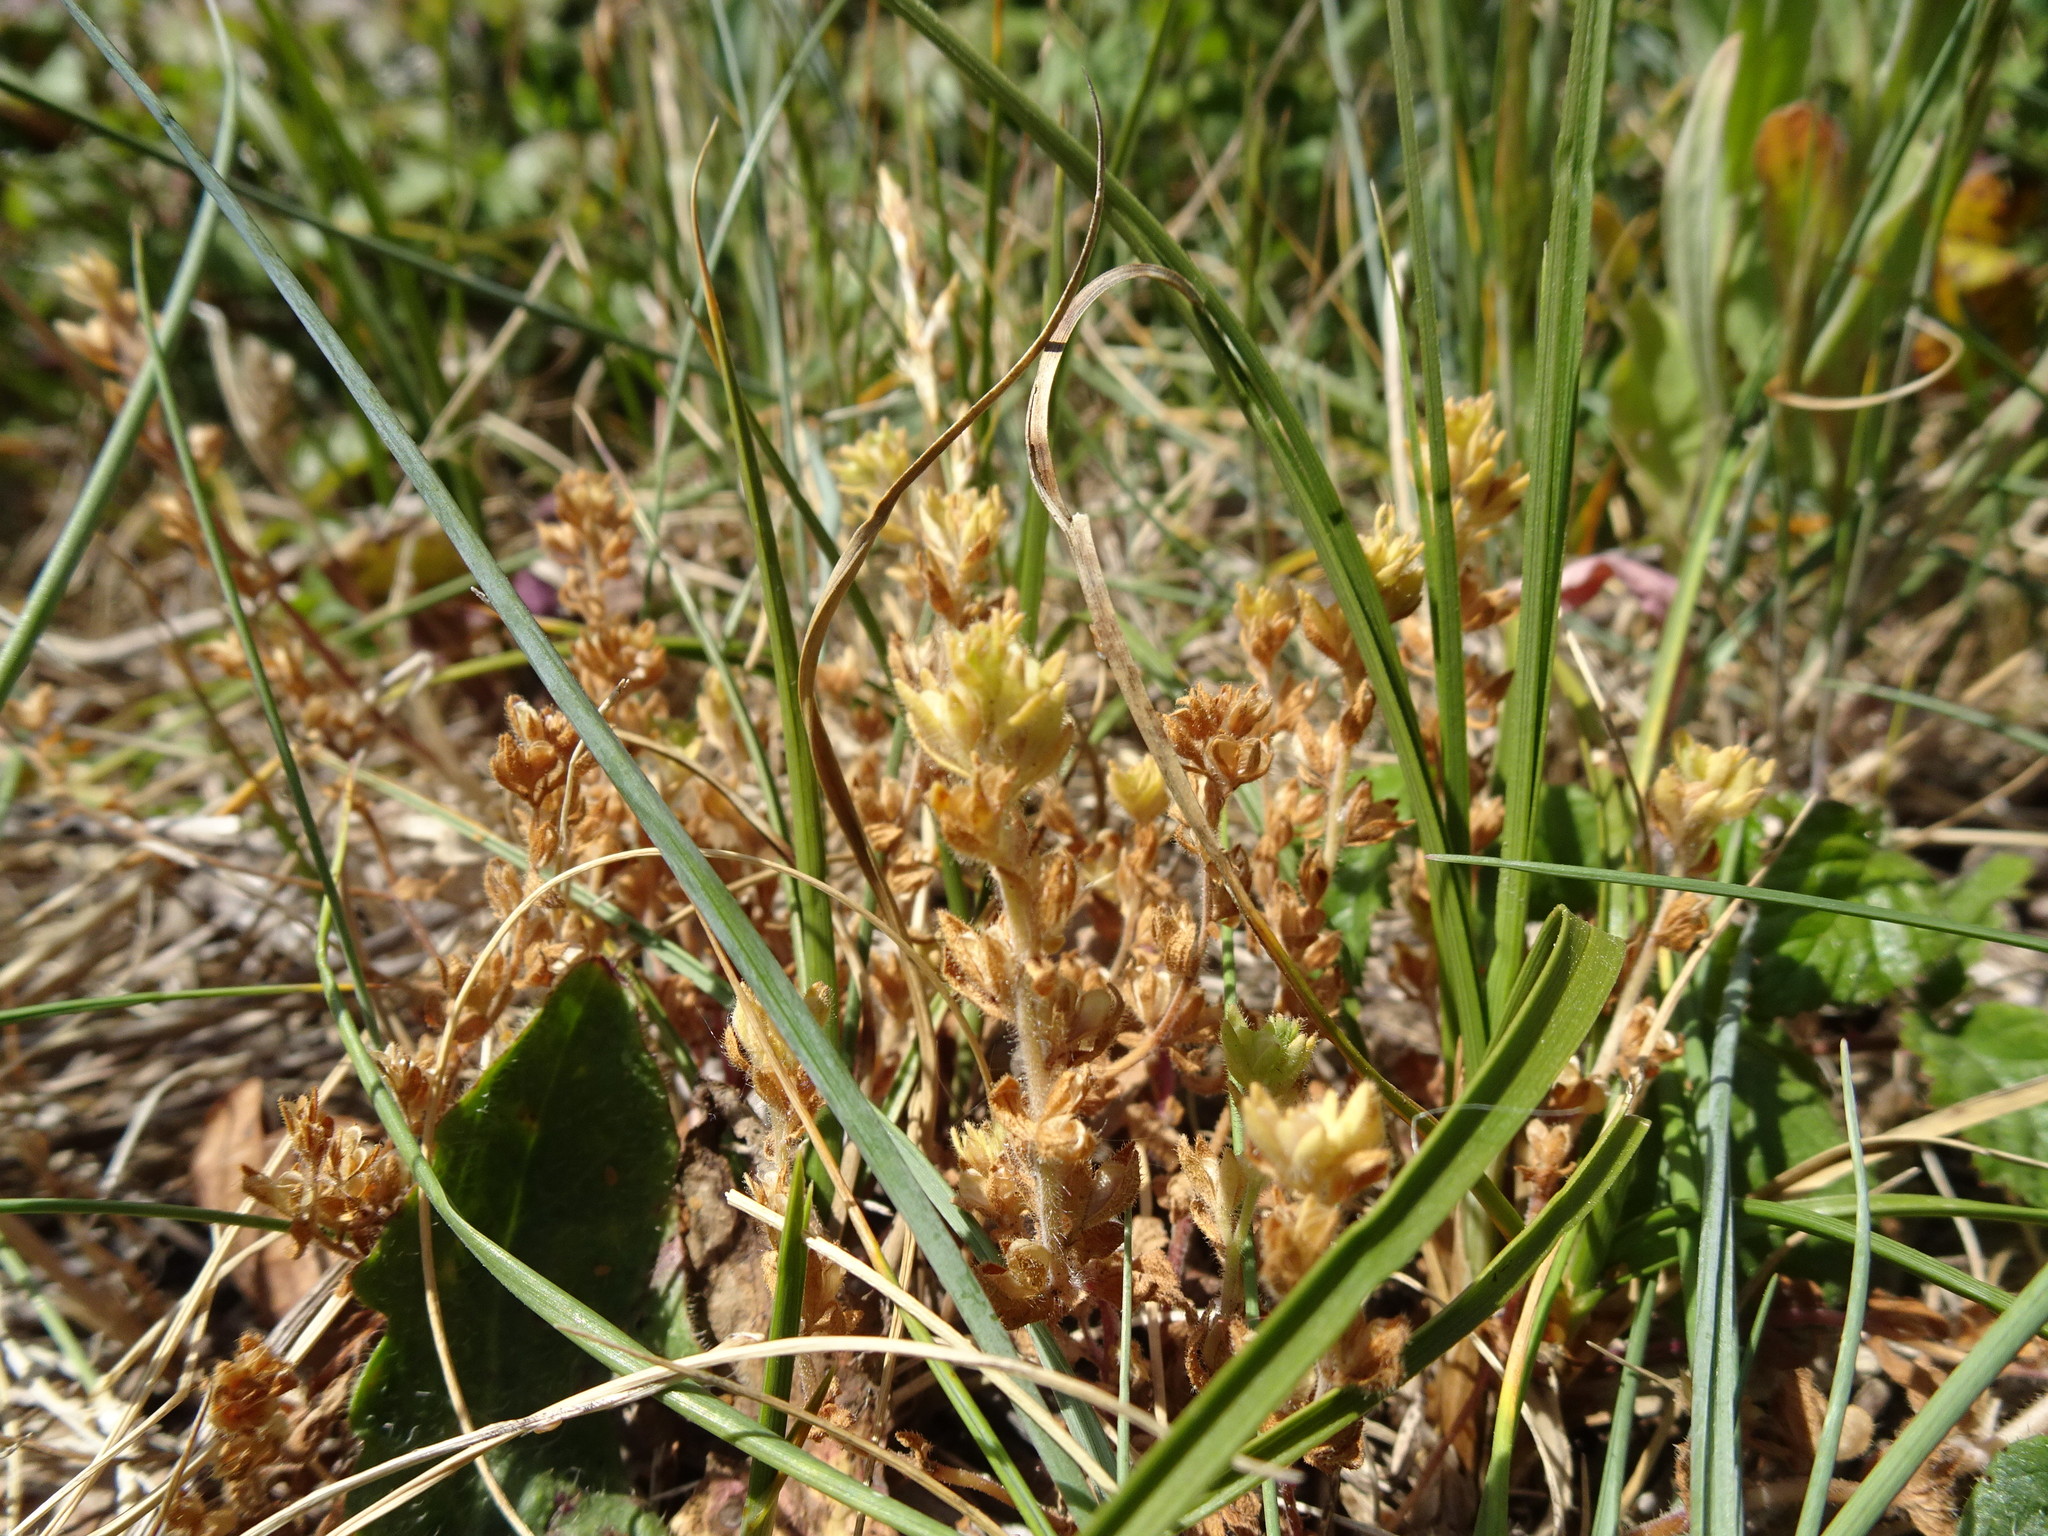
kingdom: Plantae
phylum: Tracheophyta
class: Magnoliopsida
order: Lamiales
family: Plantaginaceae
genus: Veronica
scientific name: Veronica arvensis
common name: Corn speedwell
